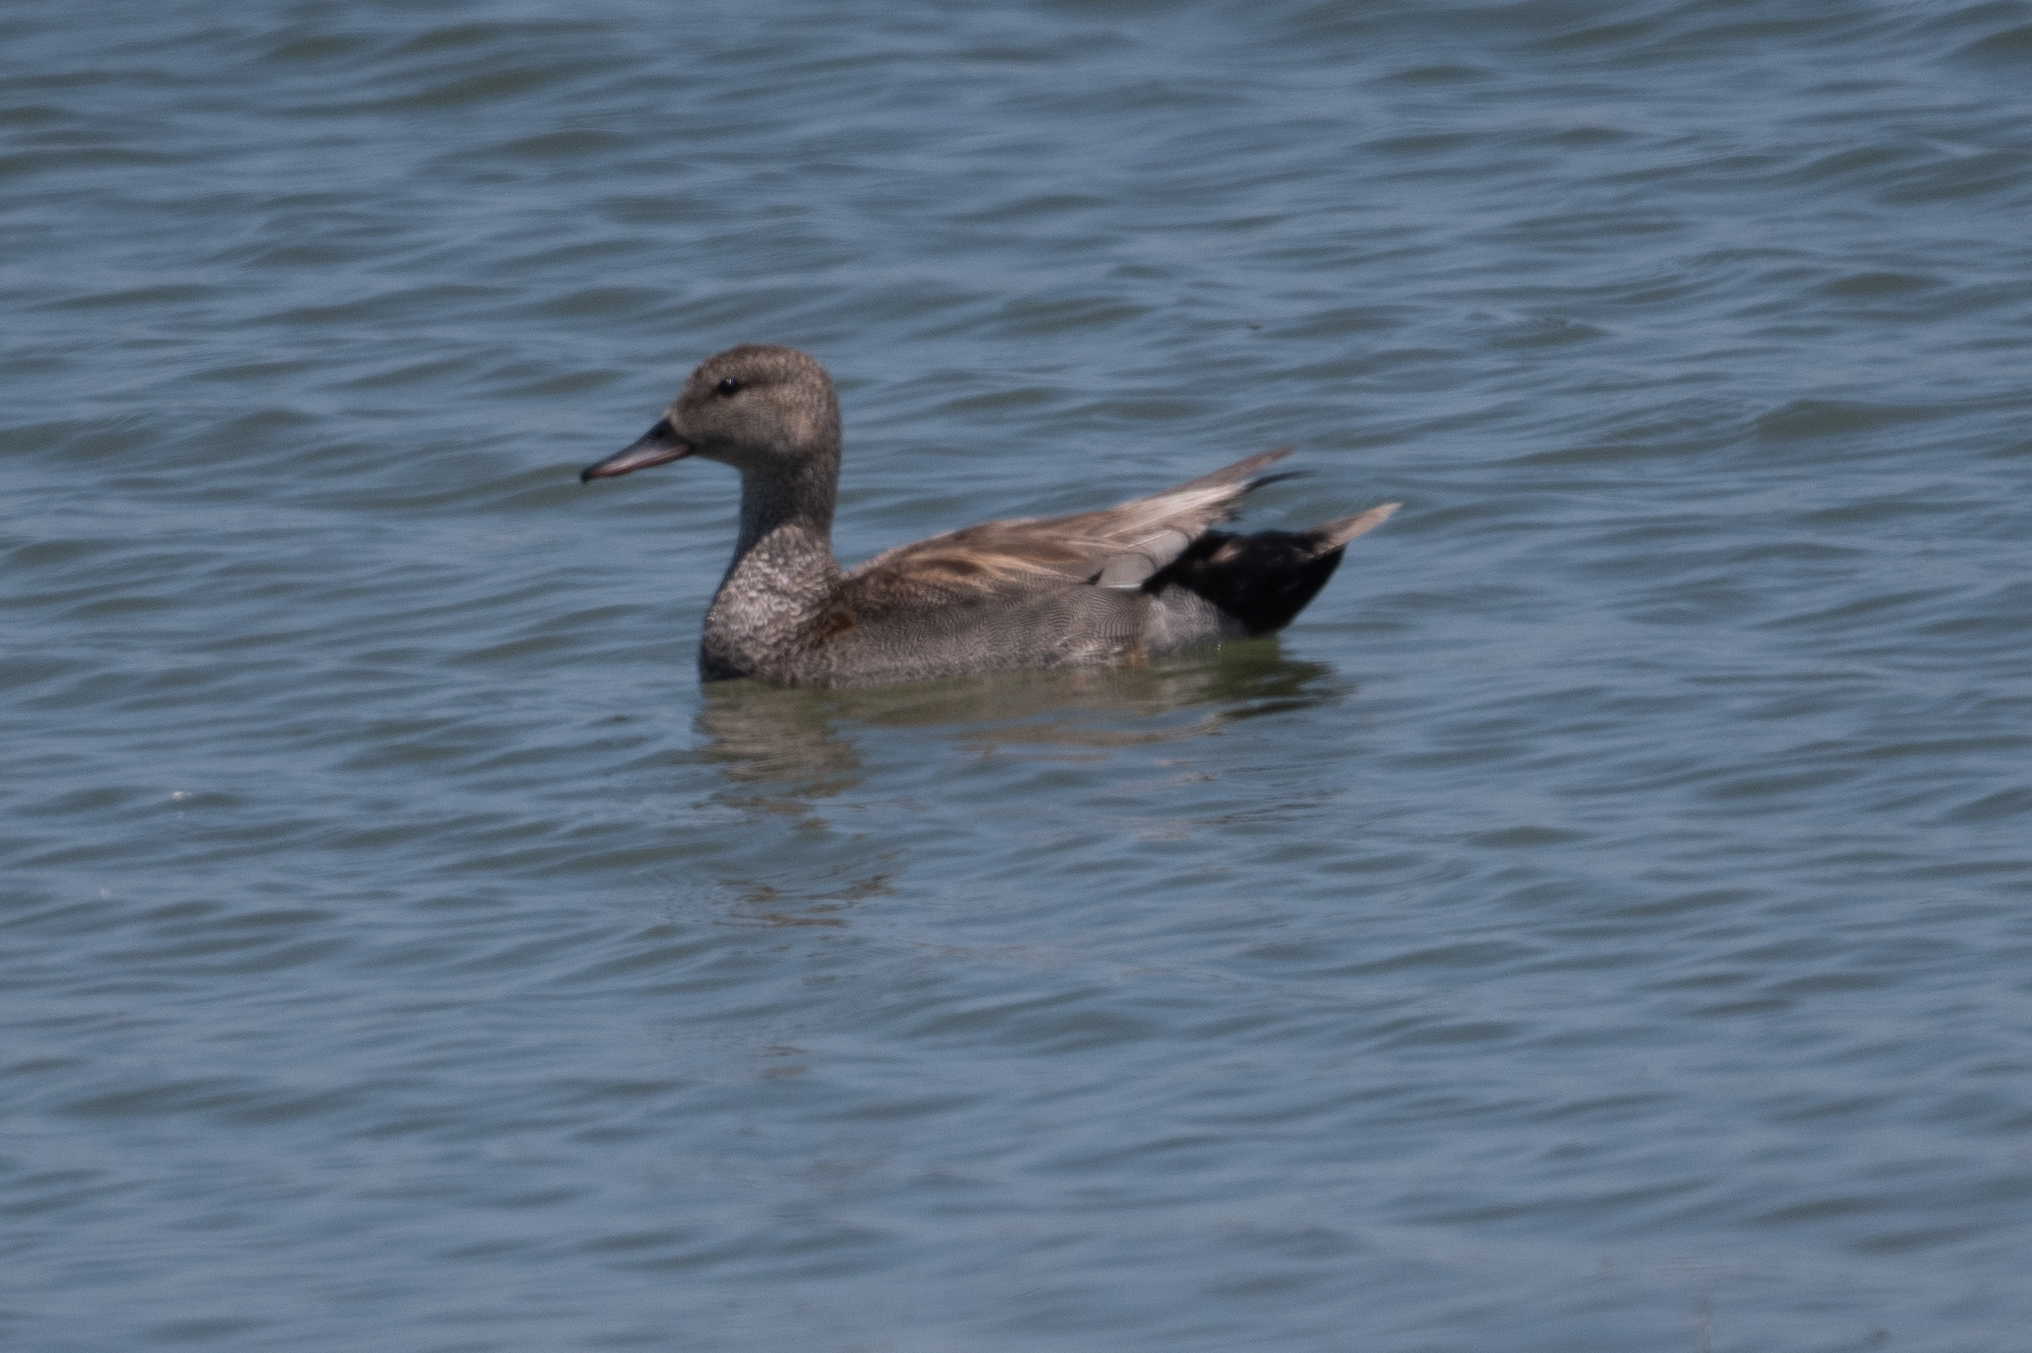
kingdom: Animalia
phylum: Chordata
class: Aves
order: Anseriformes
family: Anatidae
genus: Mareca
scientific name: Mareca strepera
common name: Gadwall
